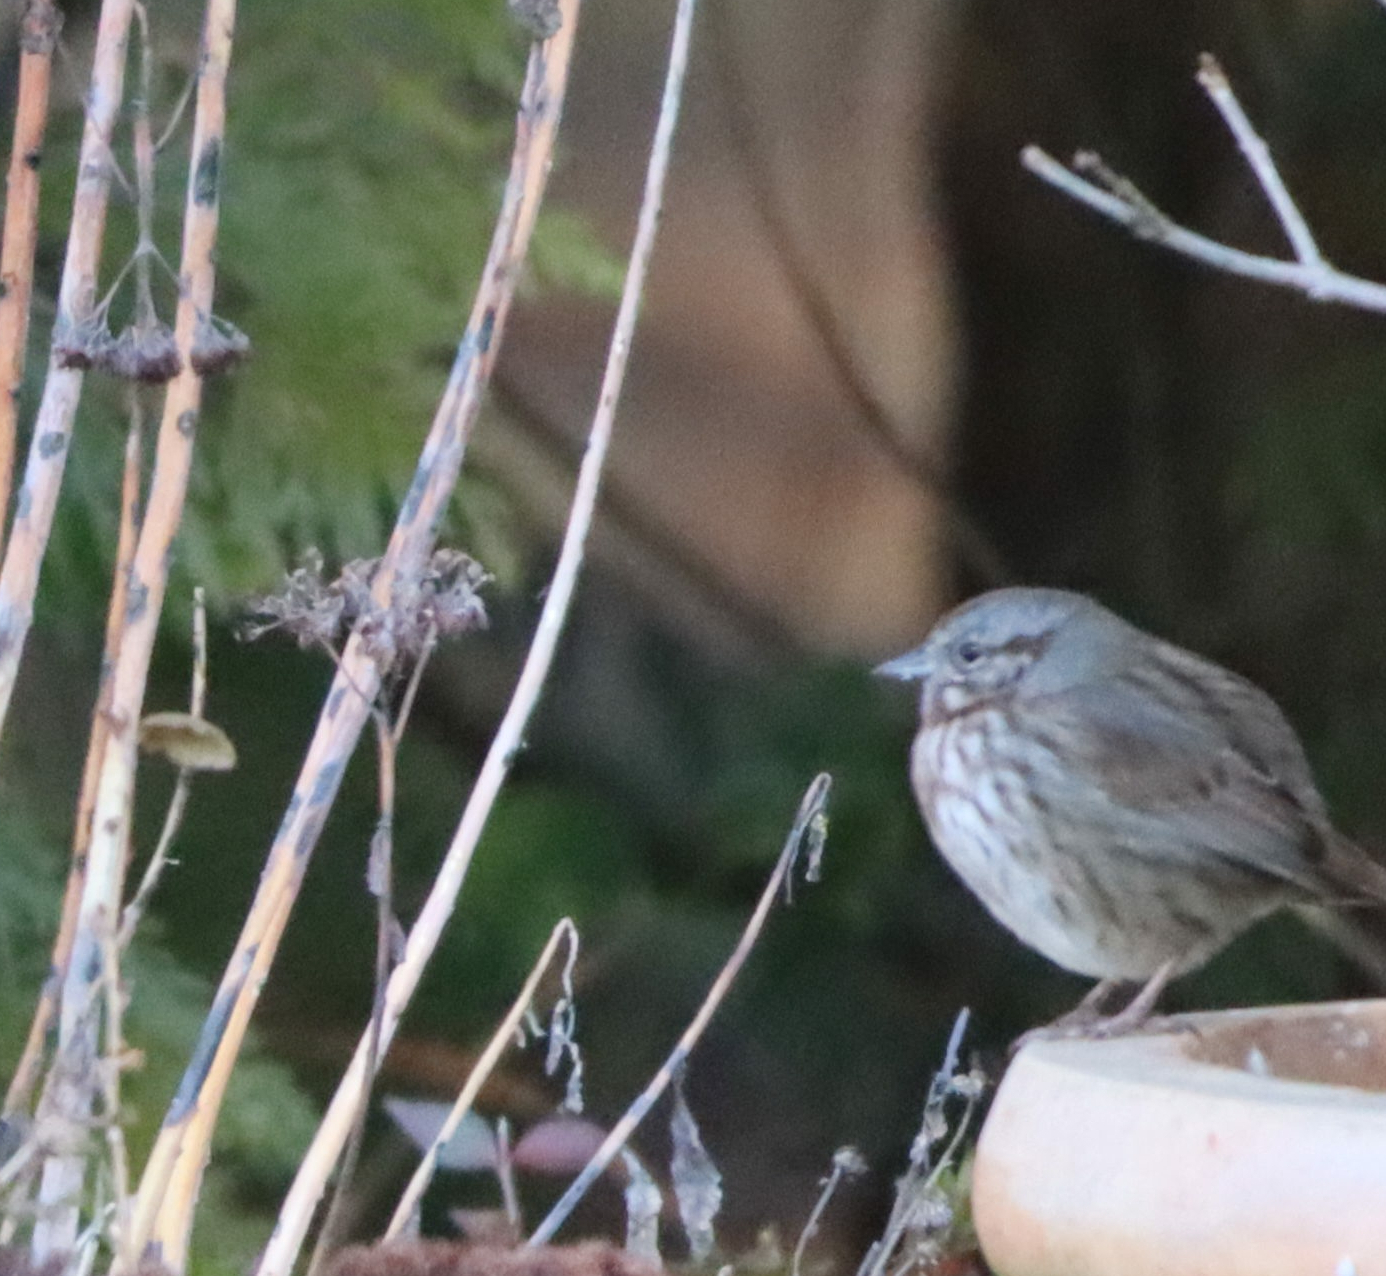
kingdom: Animalia
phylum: Chordata
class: Aves
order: Passeriformes
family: Passerellidae
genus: Melospiza
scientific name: Melospiza melodia
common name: Song sparrow
